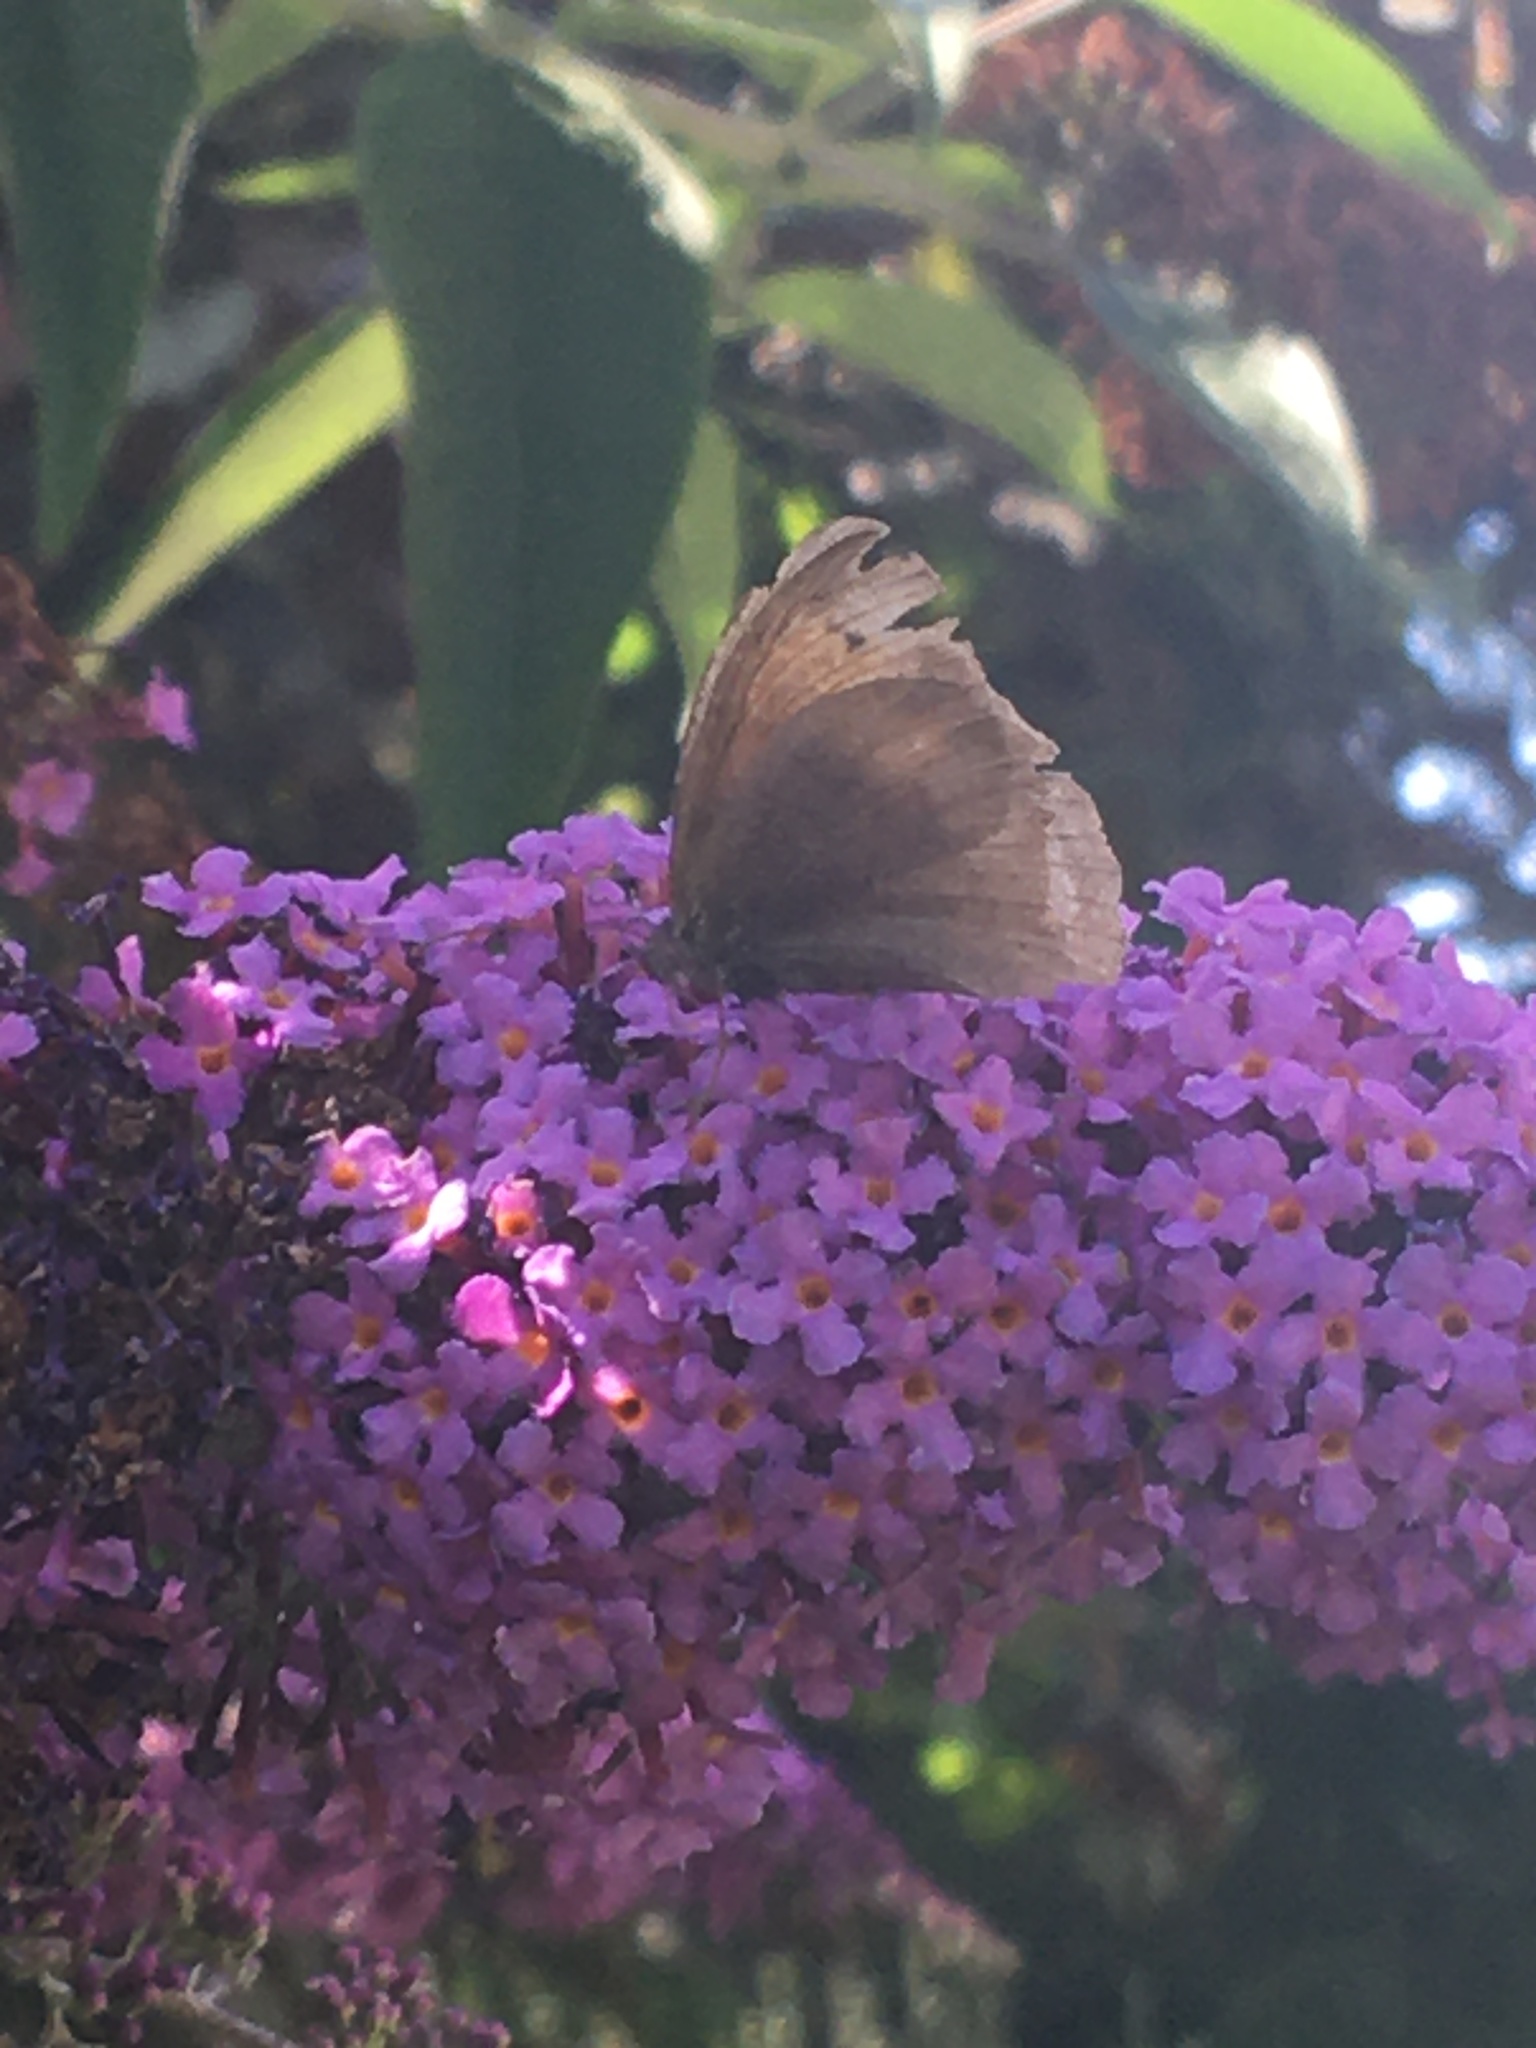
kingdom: Animalia
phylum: Arthropoda
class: Insecta
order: Lepidoptera
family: Nymphalidae
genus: Maniola
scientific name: Maniola jurtina
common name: Meadow brown
